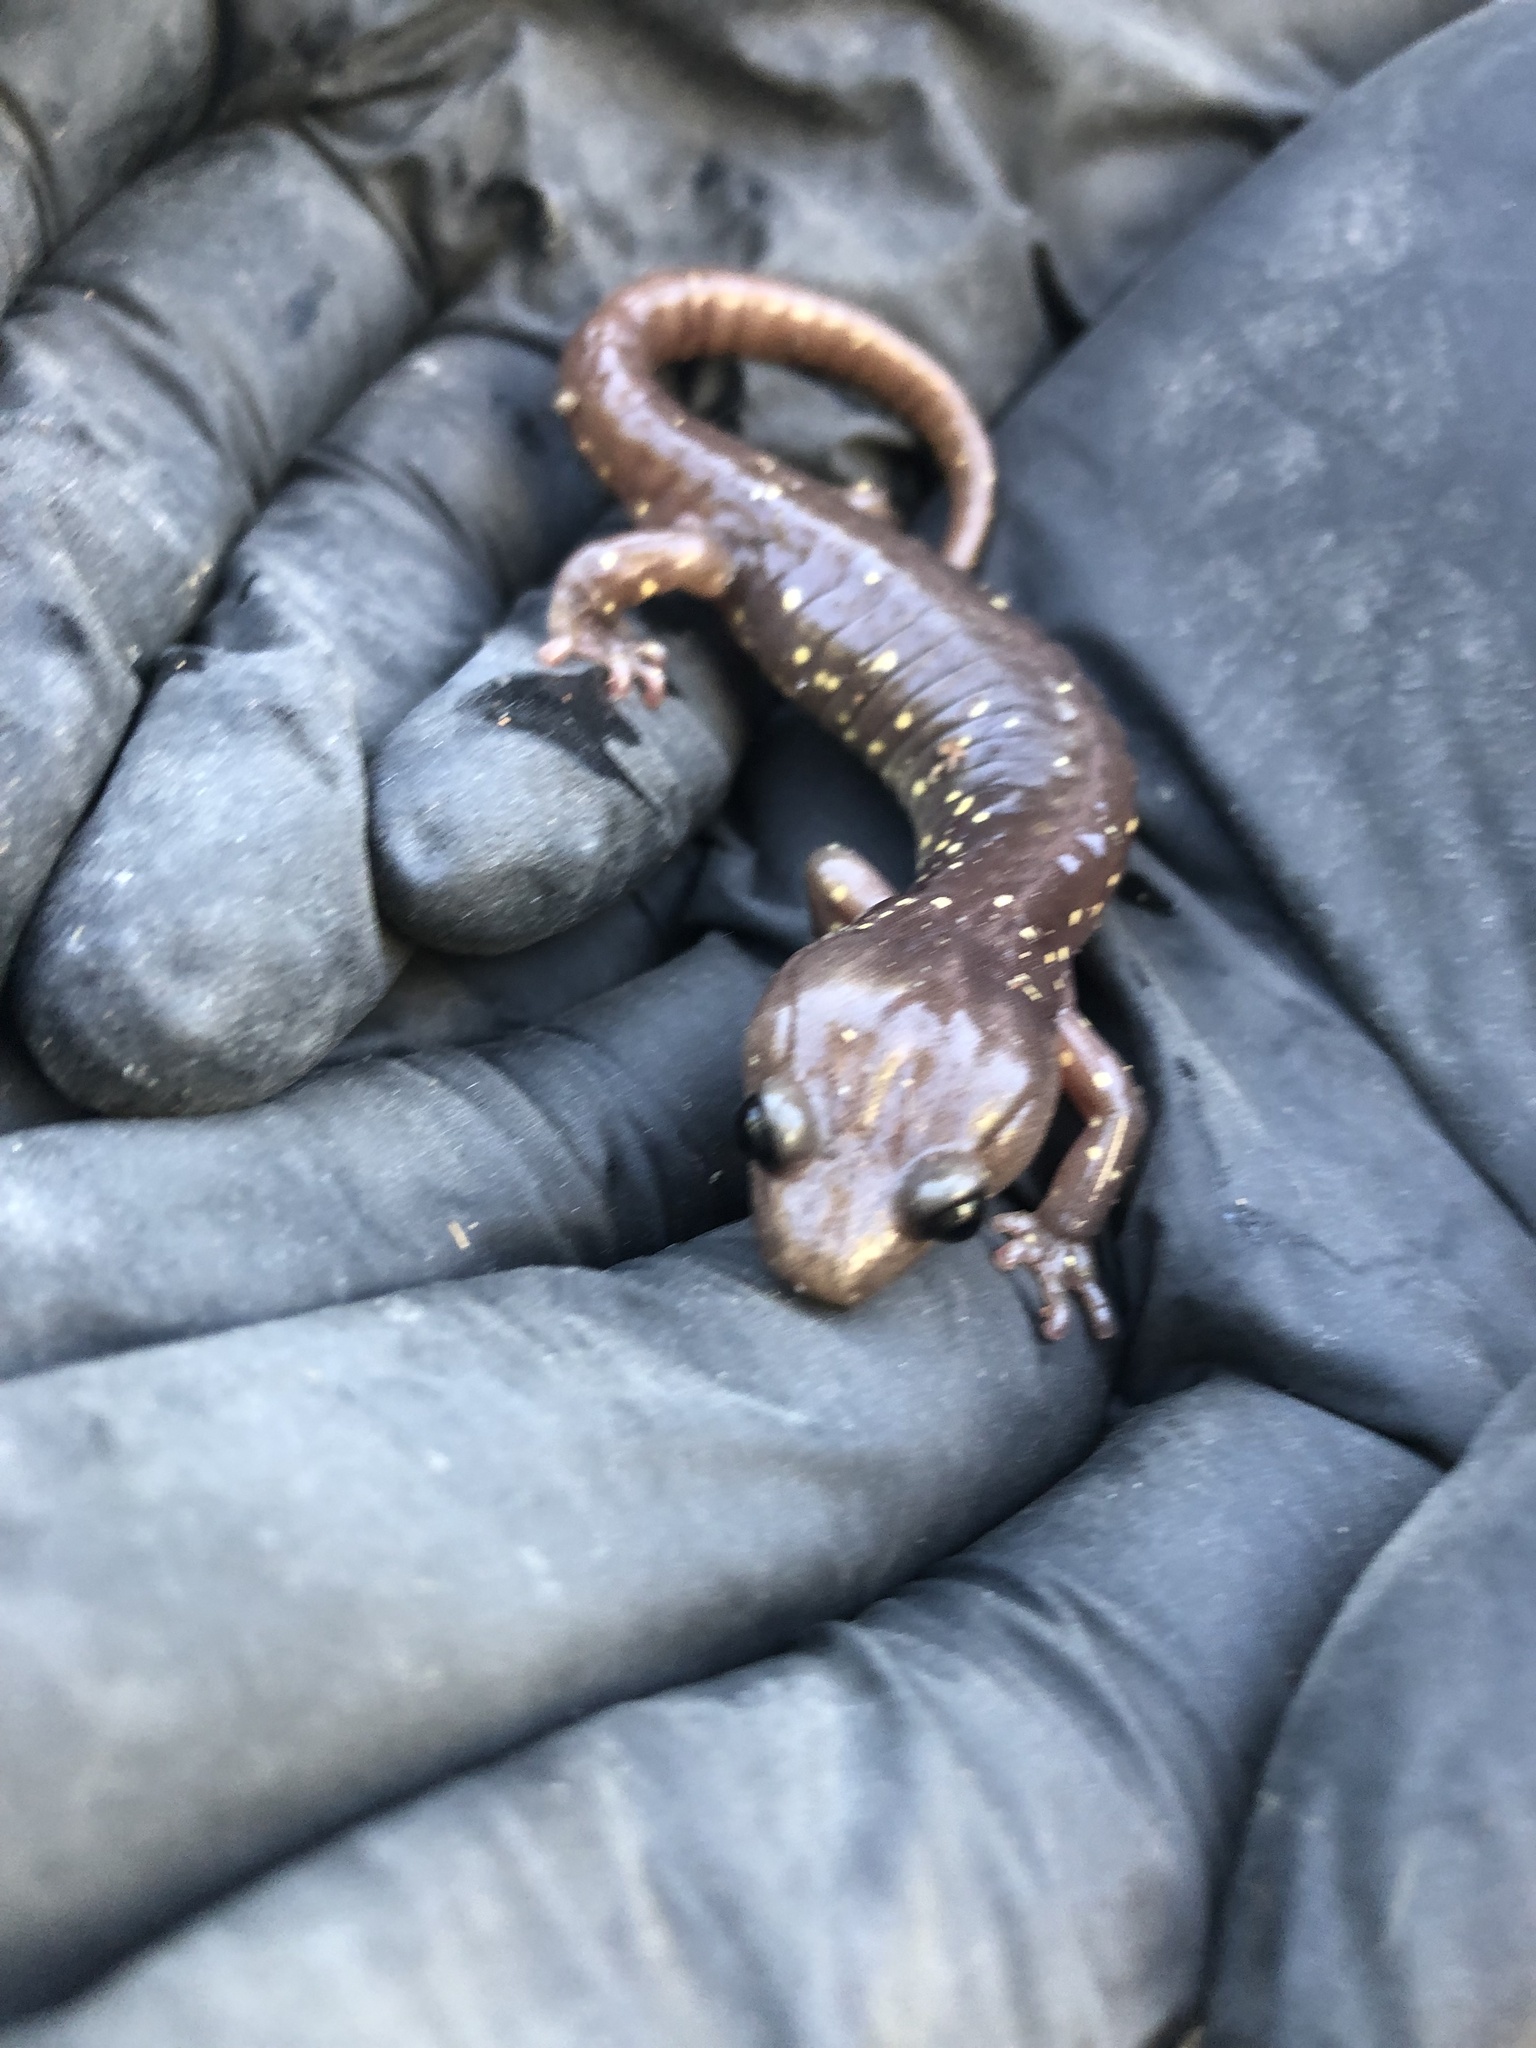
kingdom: Animalia
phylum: Chordata
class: Amphibia
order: Caudata
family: Plethodontidae
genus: Aneides
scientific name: Aneides lugubris
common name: Arboreal salamander
